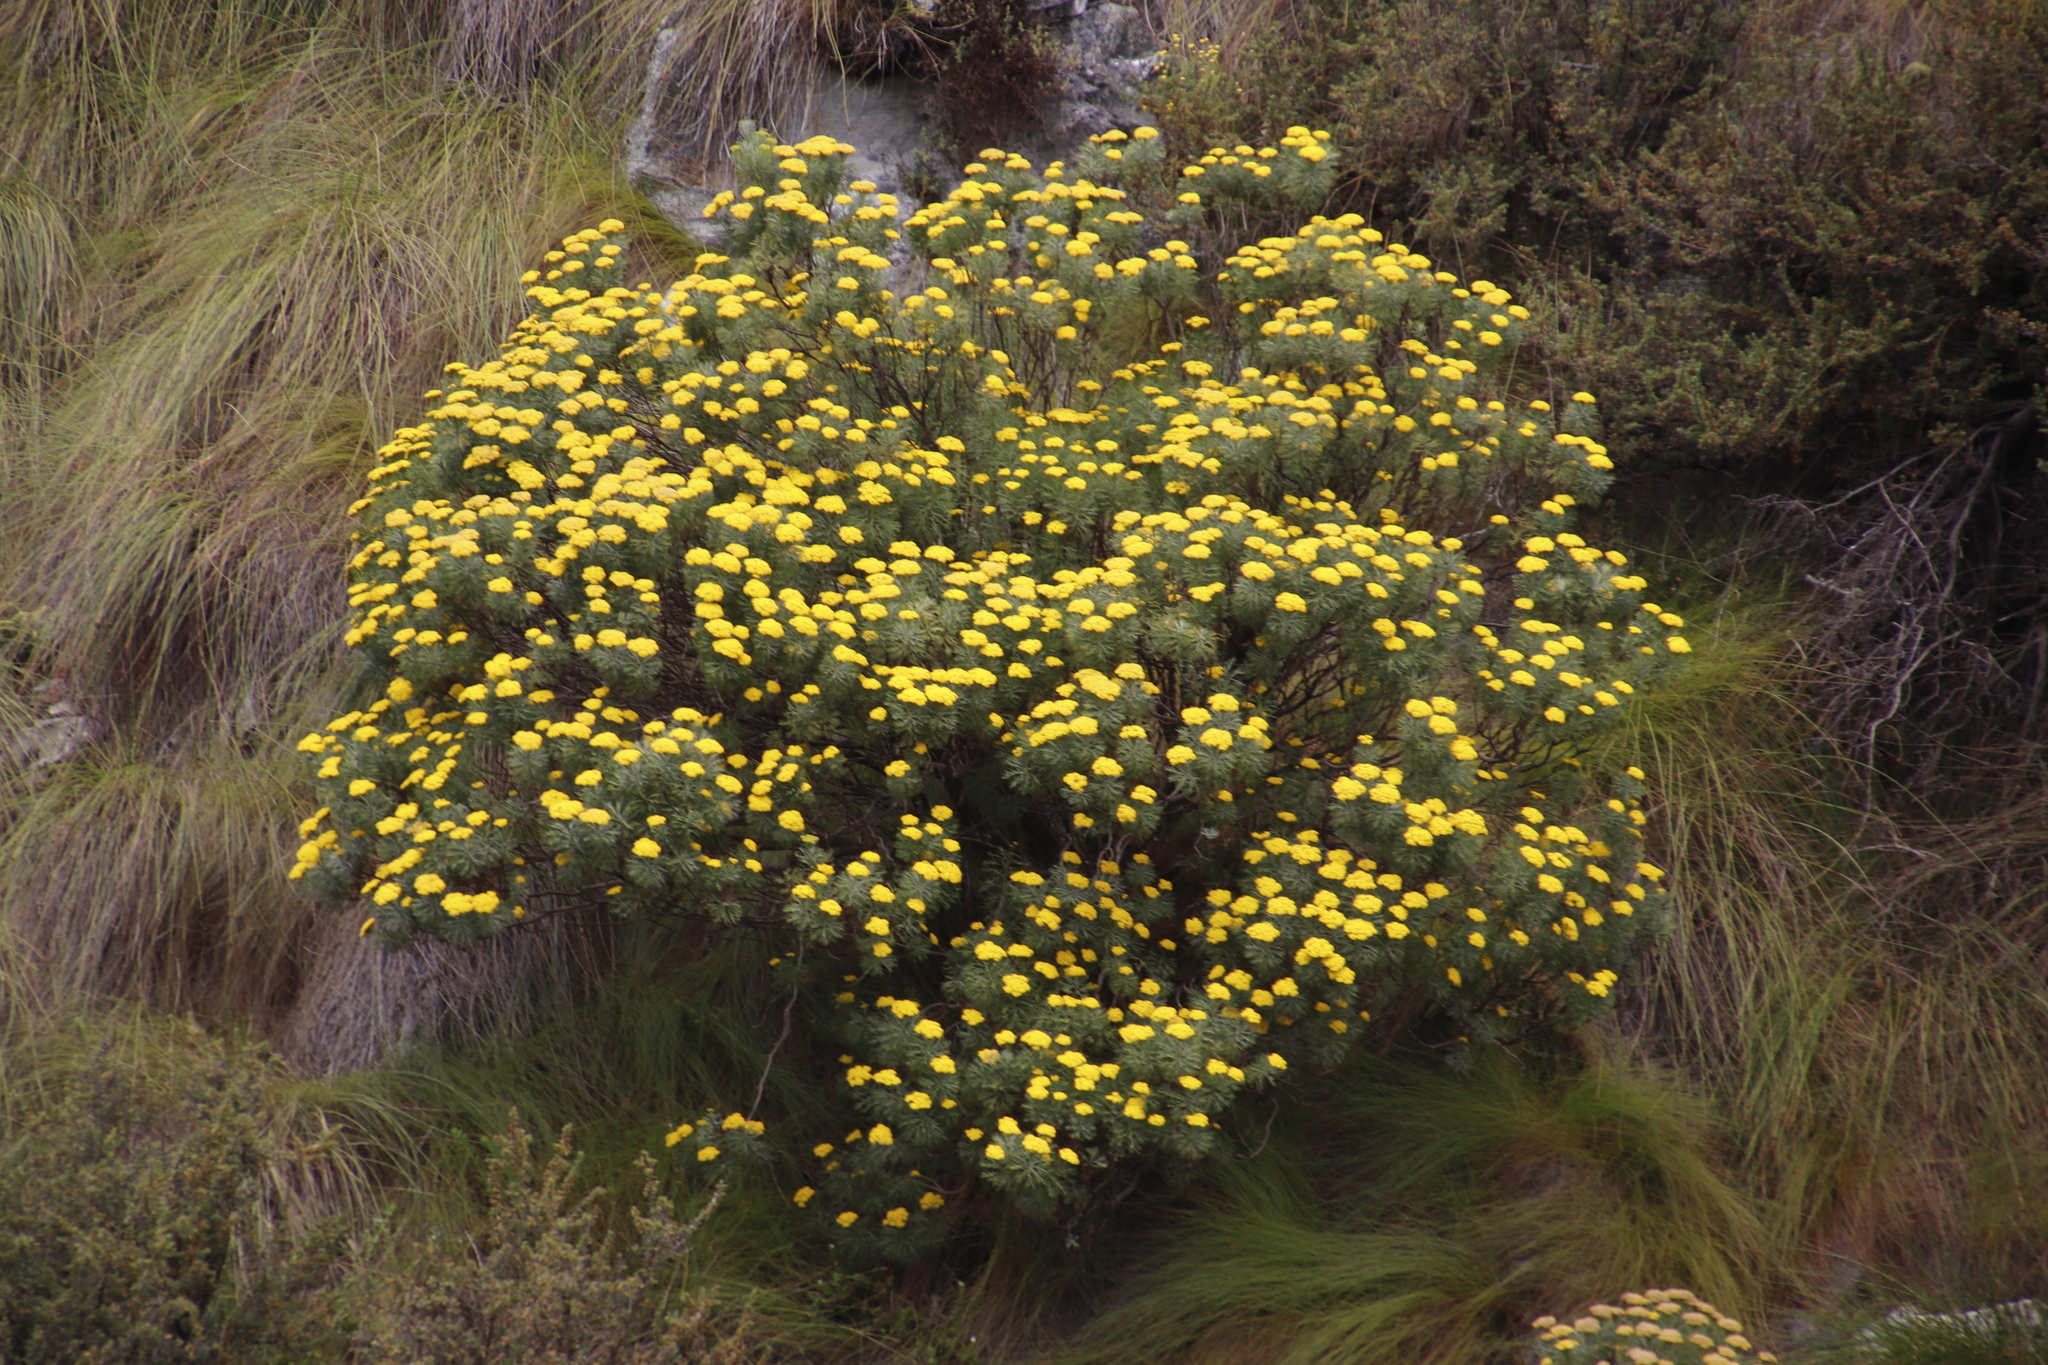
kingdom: Plantae
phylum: Tracheophyta
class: Magnoliopsida
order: Asterales
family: Asteraceae
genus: Athanasia
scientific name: Athanasia crithmifolia
